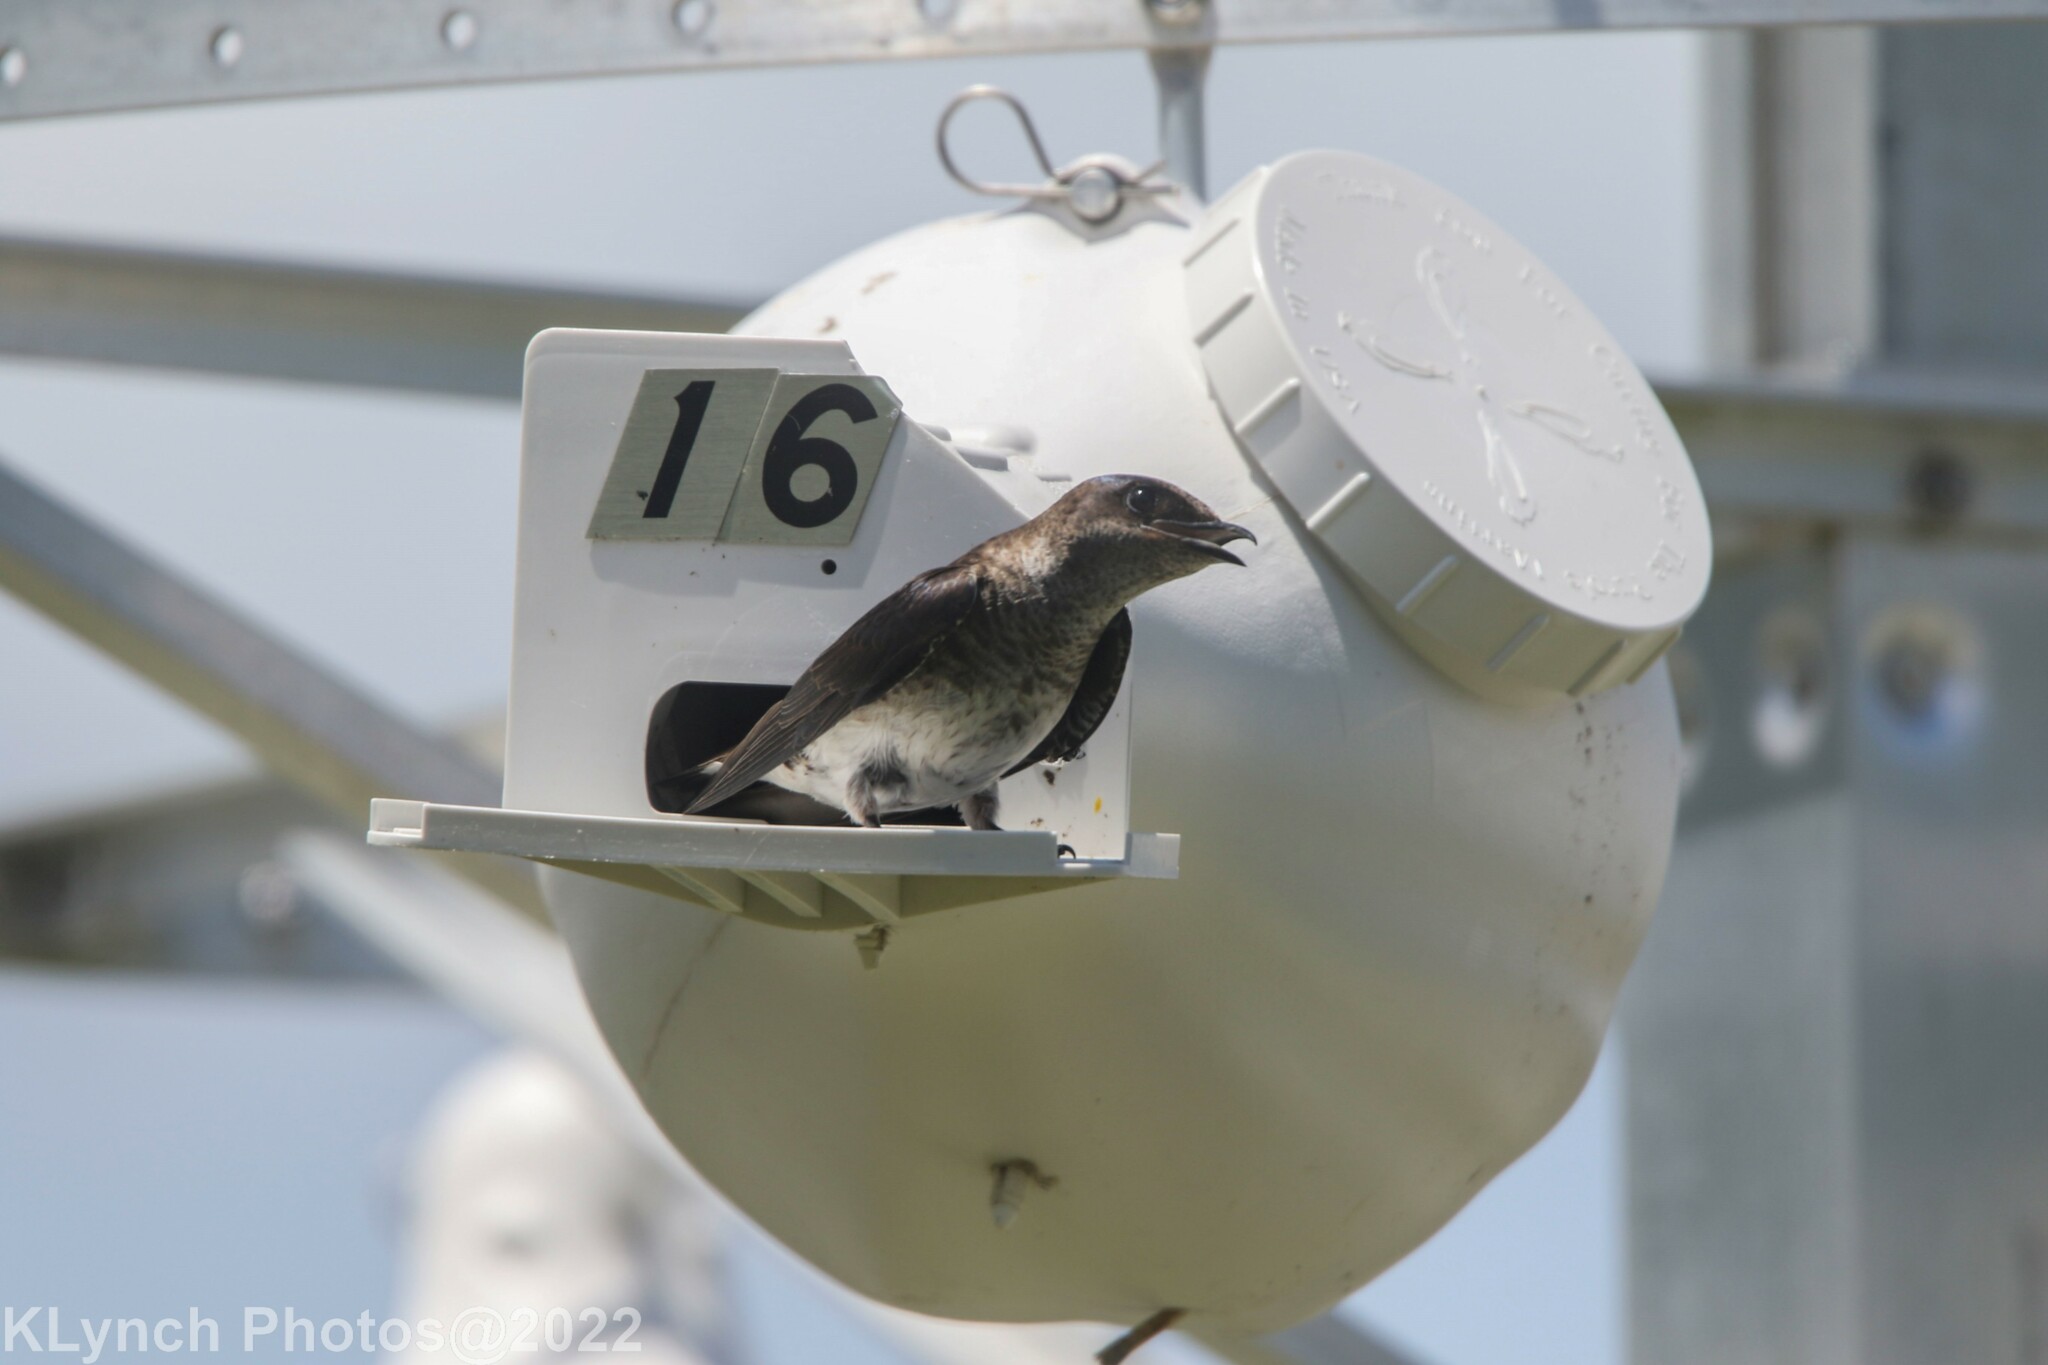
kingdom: Animalia
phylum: Chordata
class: Aves
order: Passeriformes
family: Hirundinidae
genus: Progne
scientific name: Progne subis
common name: Purple martin
